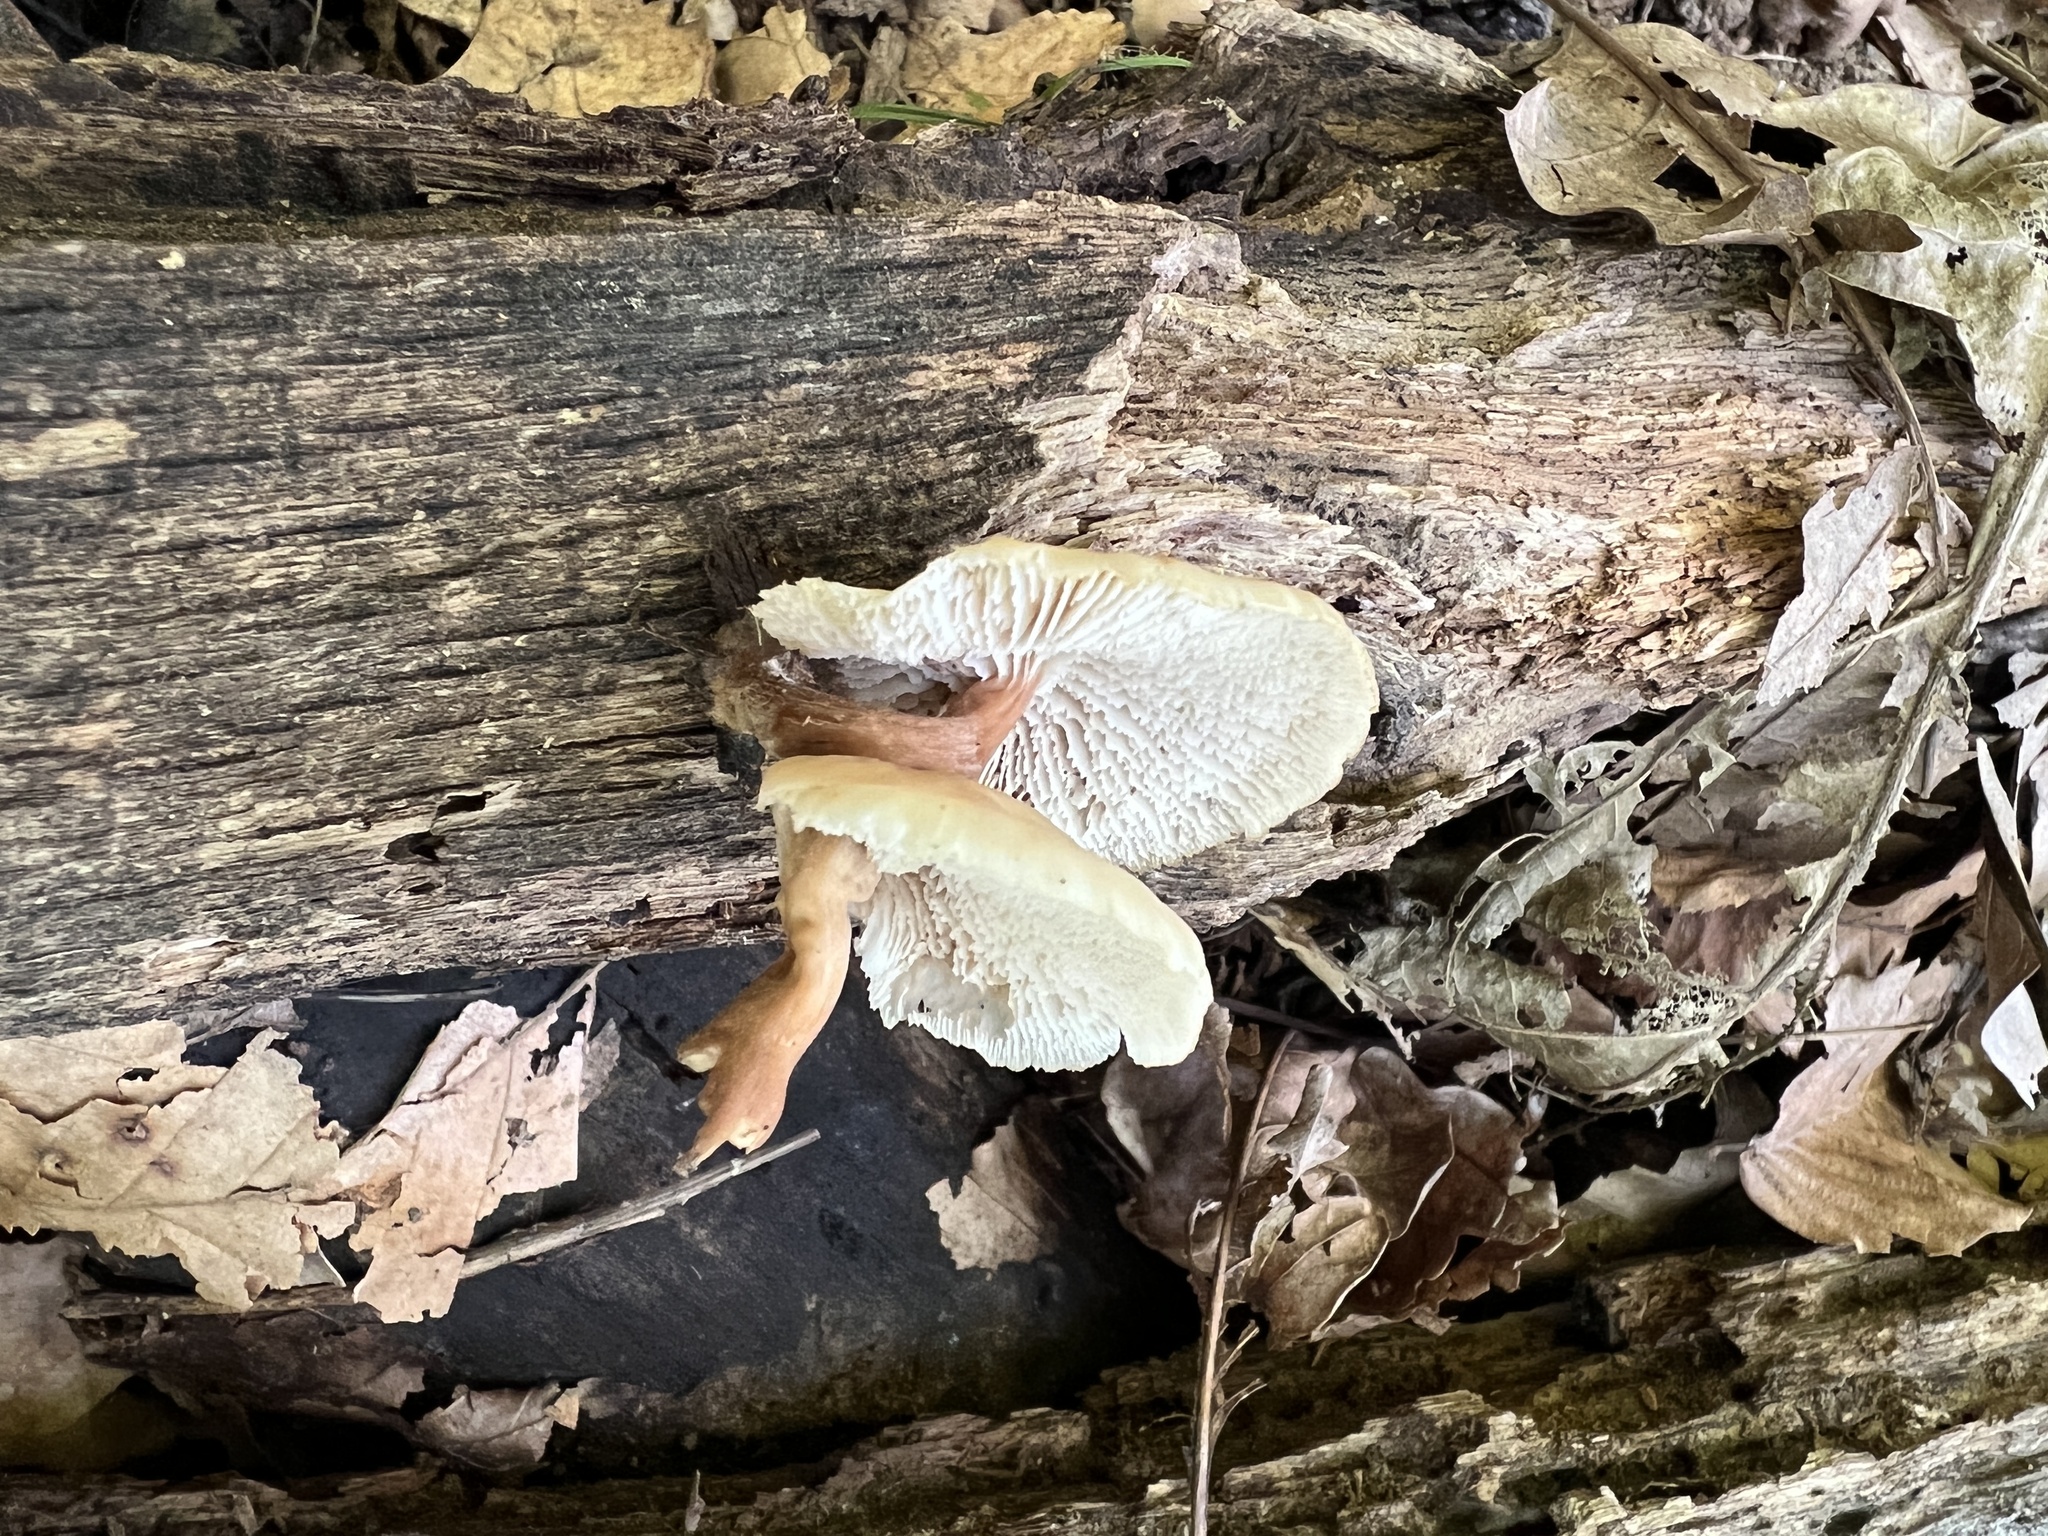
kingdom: Fungi
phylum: Basidiomycota
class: Agaricomycetes
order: Russulales
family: Auriscalpiaceae
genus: Lentinellus
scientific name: Lentinellus subaustralis
